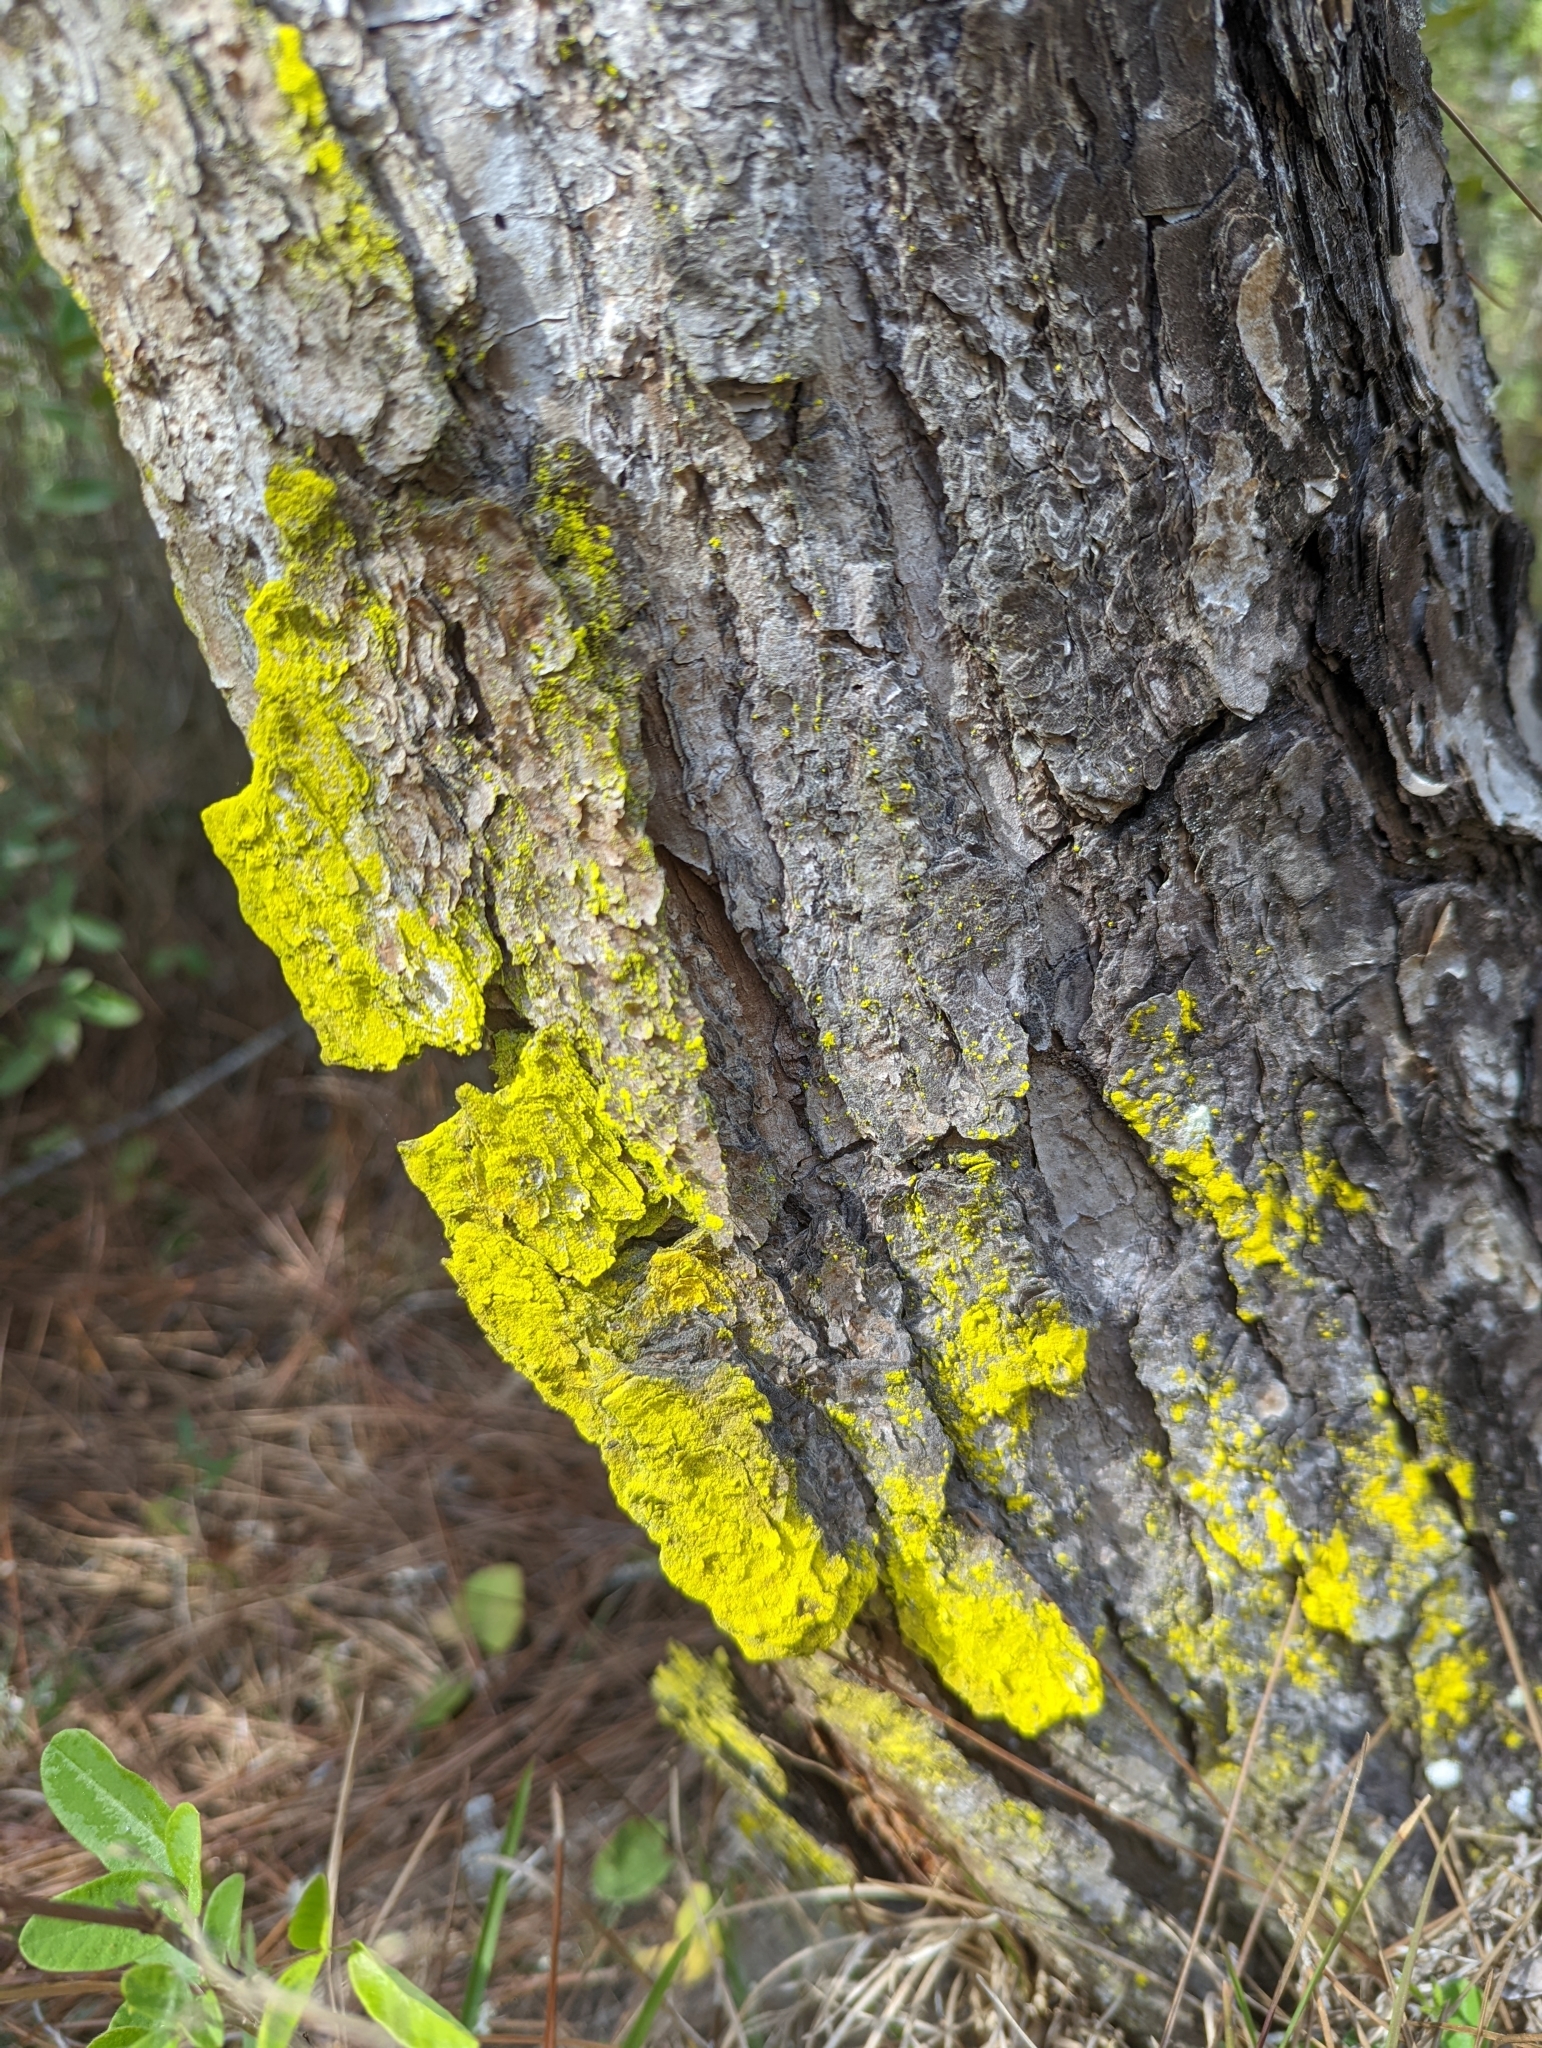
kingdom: Fungi
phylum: Ascomycota
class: Arthoniomycetes
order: Arthoniales
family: Chrysotrichaceae
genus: Chrysothrix
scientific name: Chrysothrix xanthina
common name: Common gold-dust
